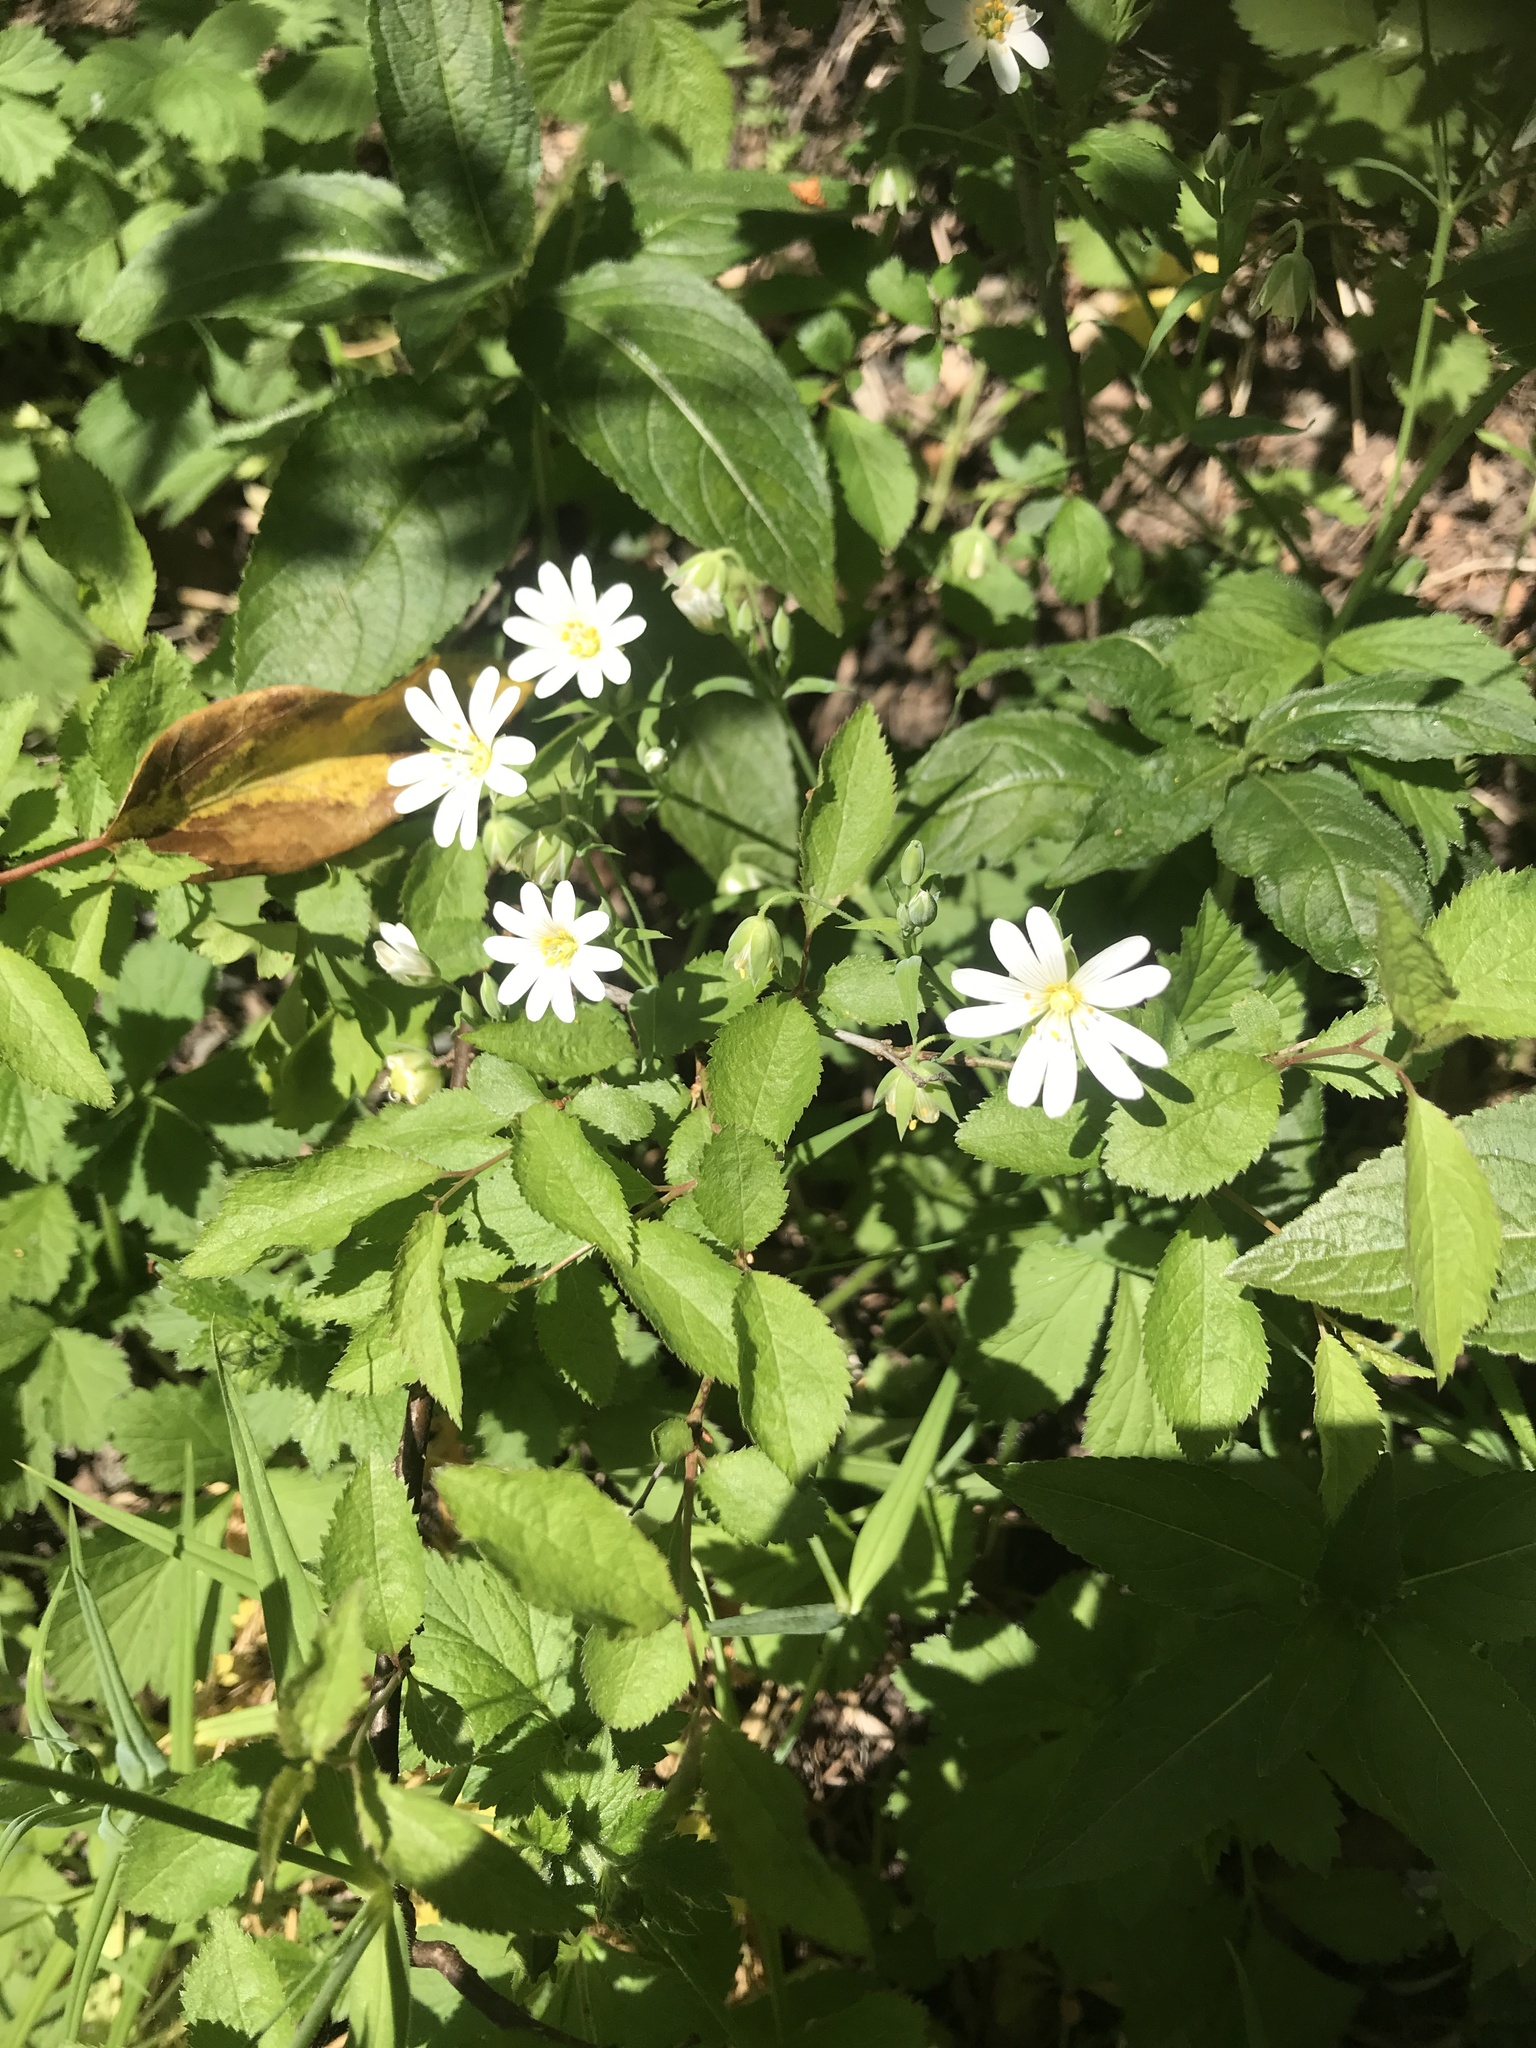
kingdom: Plantae
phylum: Tracheophyta
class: Magnoliopsida
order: Caryophyllales
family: Caryophyllaceae
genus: Rabelera
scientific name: Rabelera holostea
